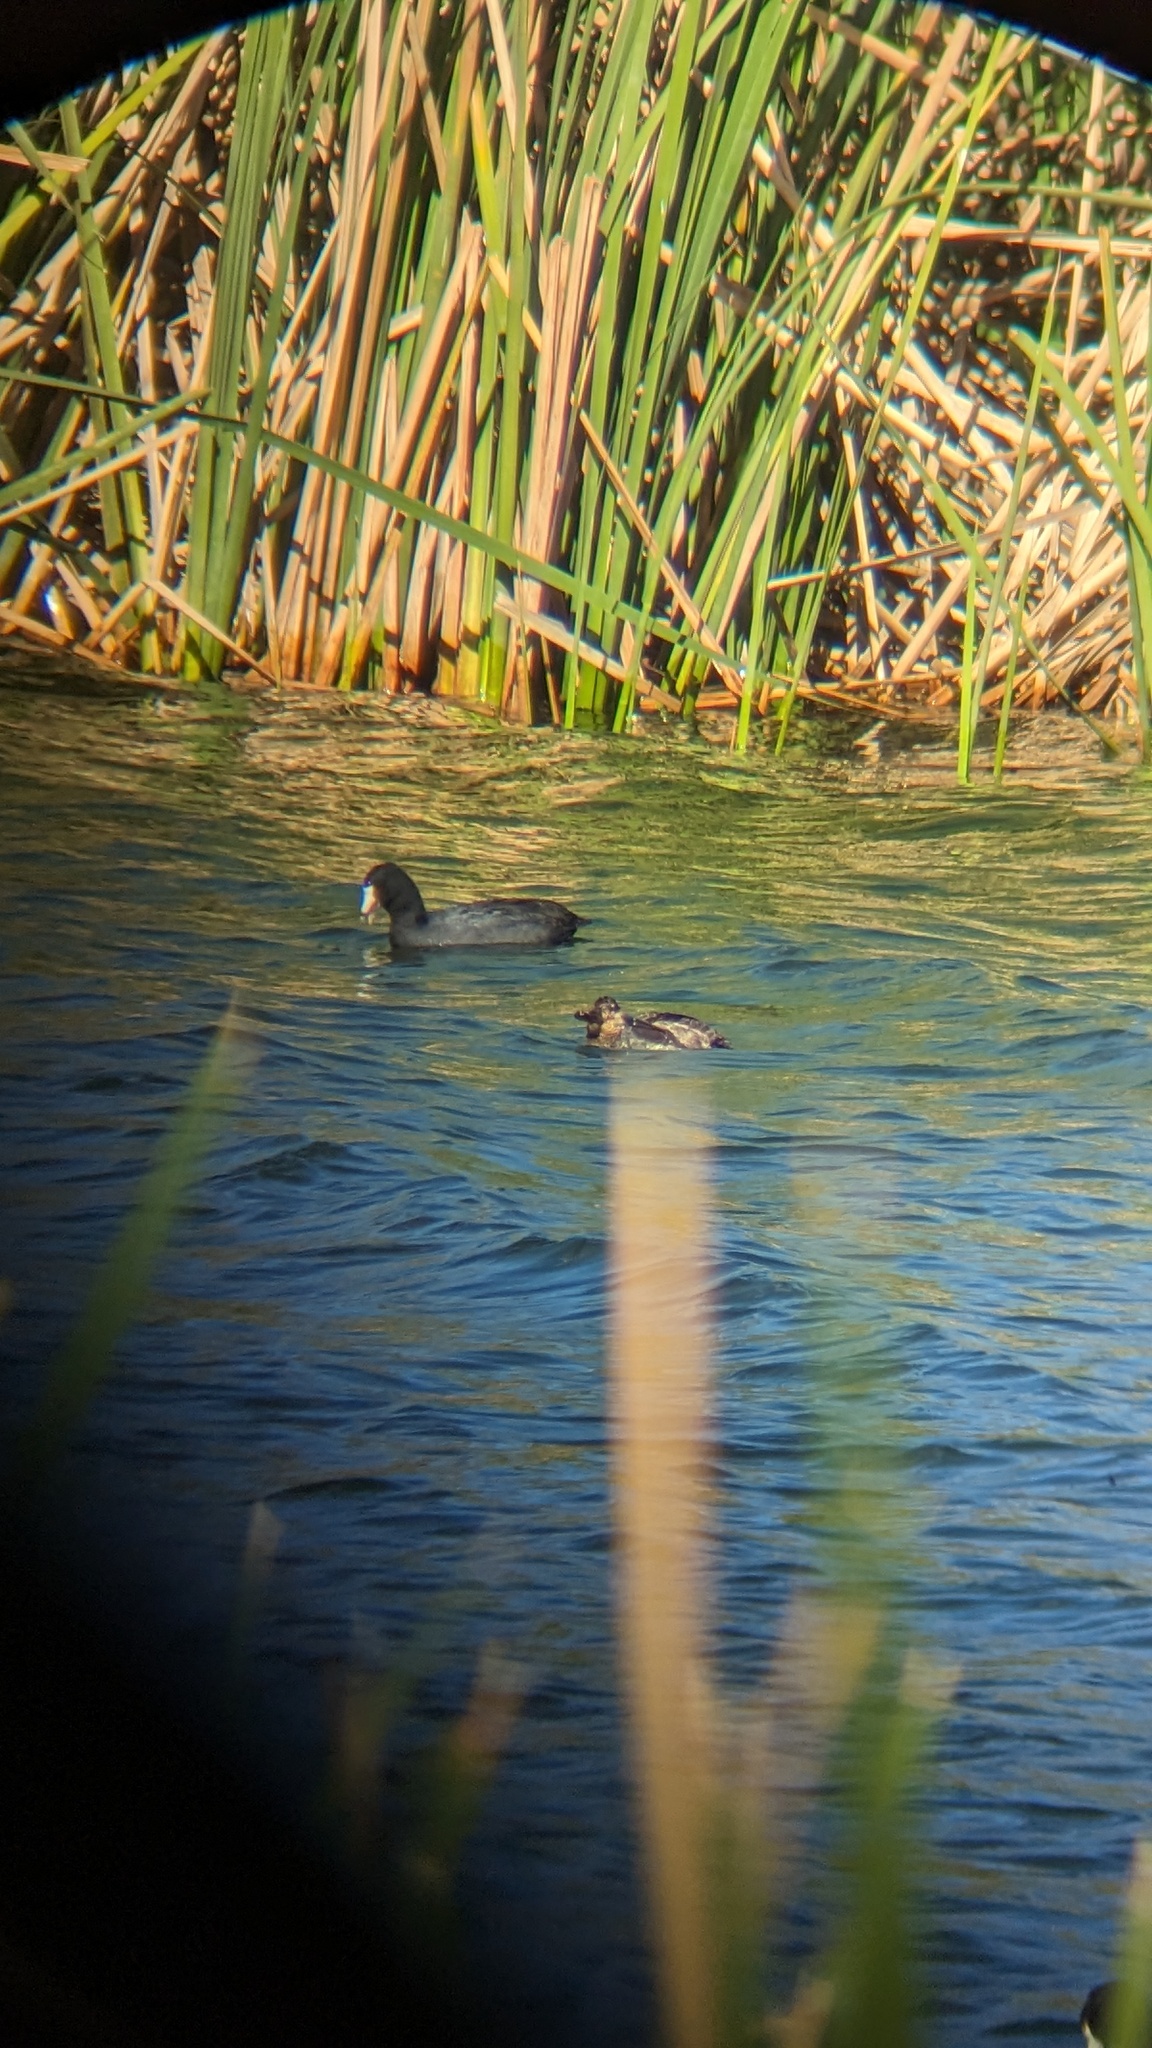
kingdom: Animalia
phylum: Chordata
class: Aves
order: Anseriformes
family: Anatidae
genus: Oxyura
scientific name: Oxyura jamaicensis
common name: Ruddy duck
